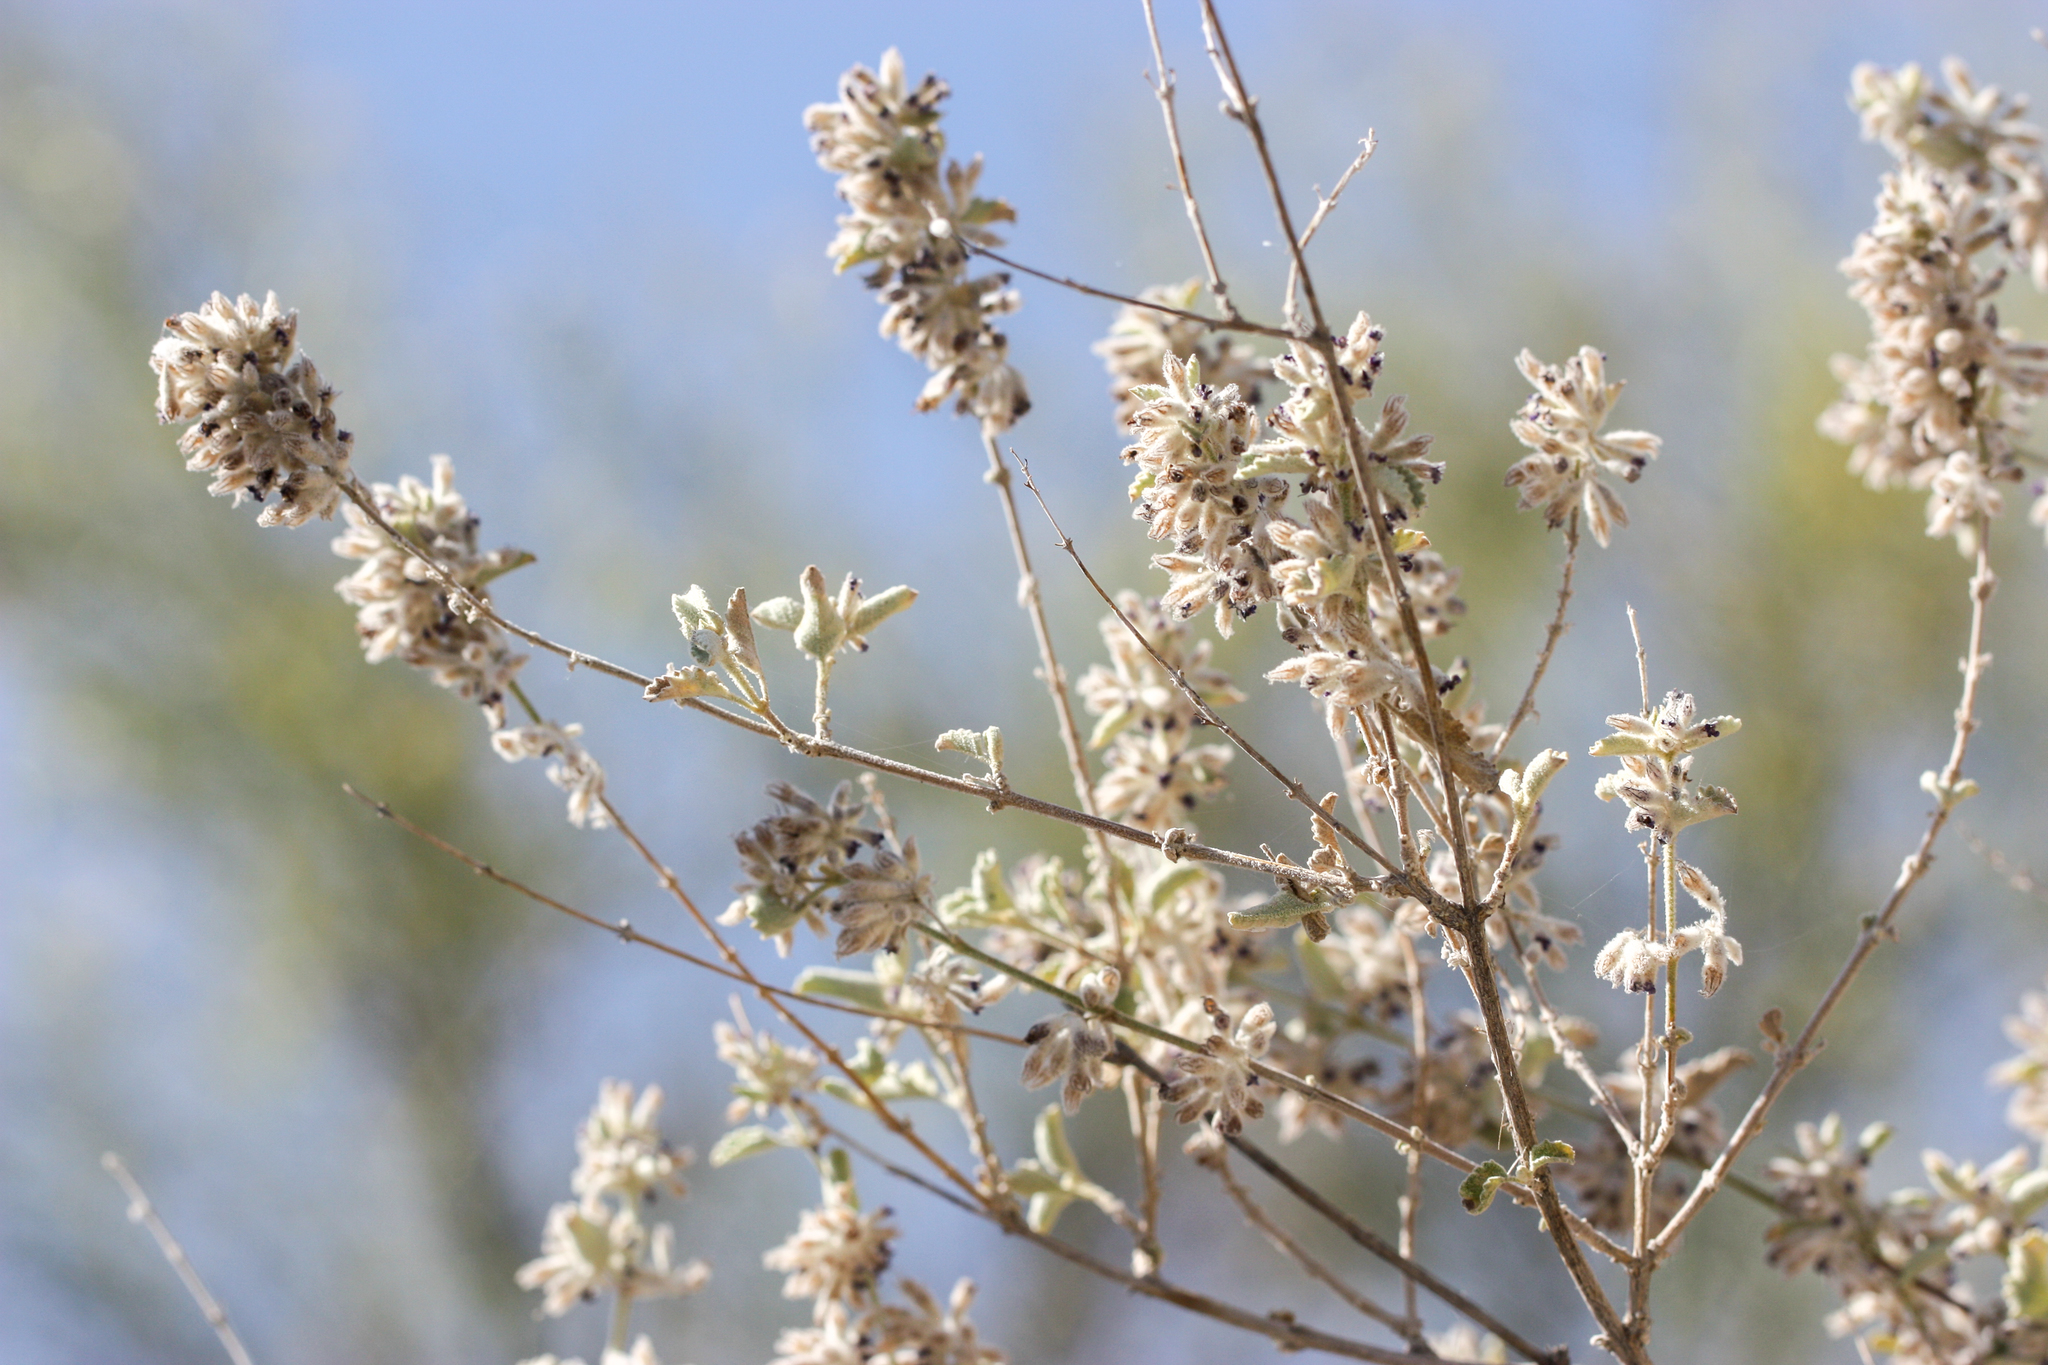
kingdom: Plantae
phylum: Tracheophyta
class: Magnoliopsida
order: Lamiales
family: Lamiaceae
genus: Condea
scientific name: Condea emoryi
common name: Chia
